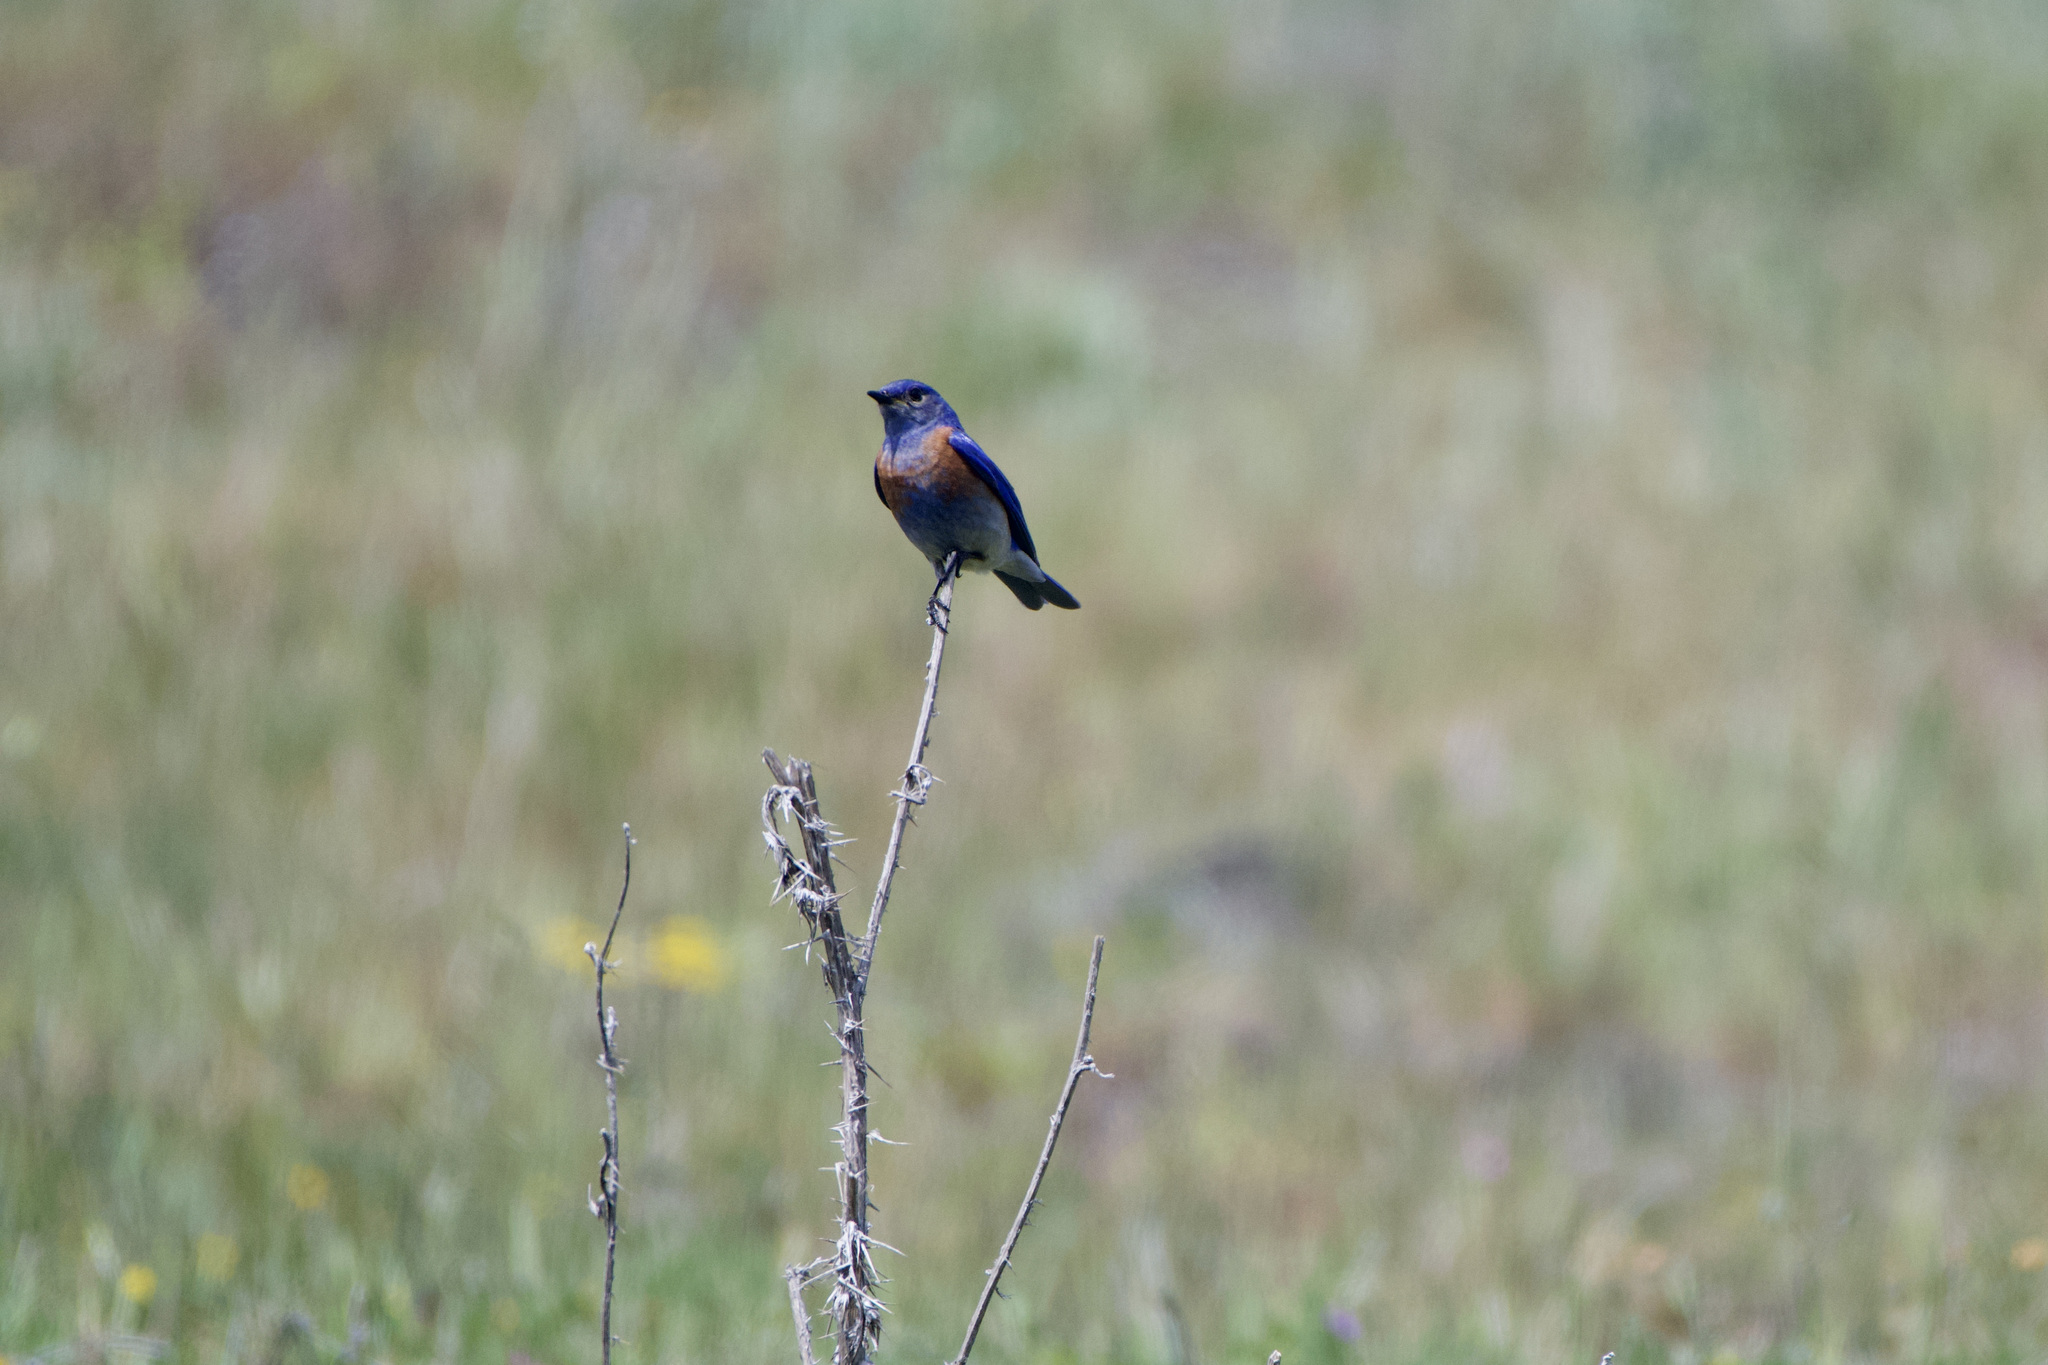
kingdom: Animalia
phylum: Chordata
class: Aves
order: Passeriformes
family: Turdidae
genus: Sialia
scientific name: Sialia mexicana
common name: Western bluebird
